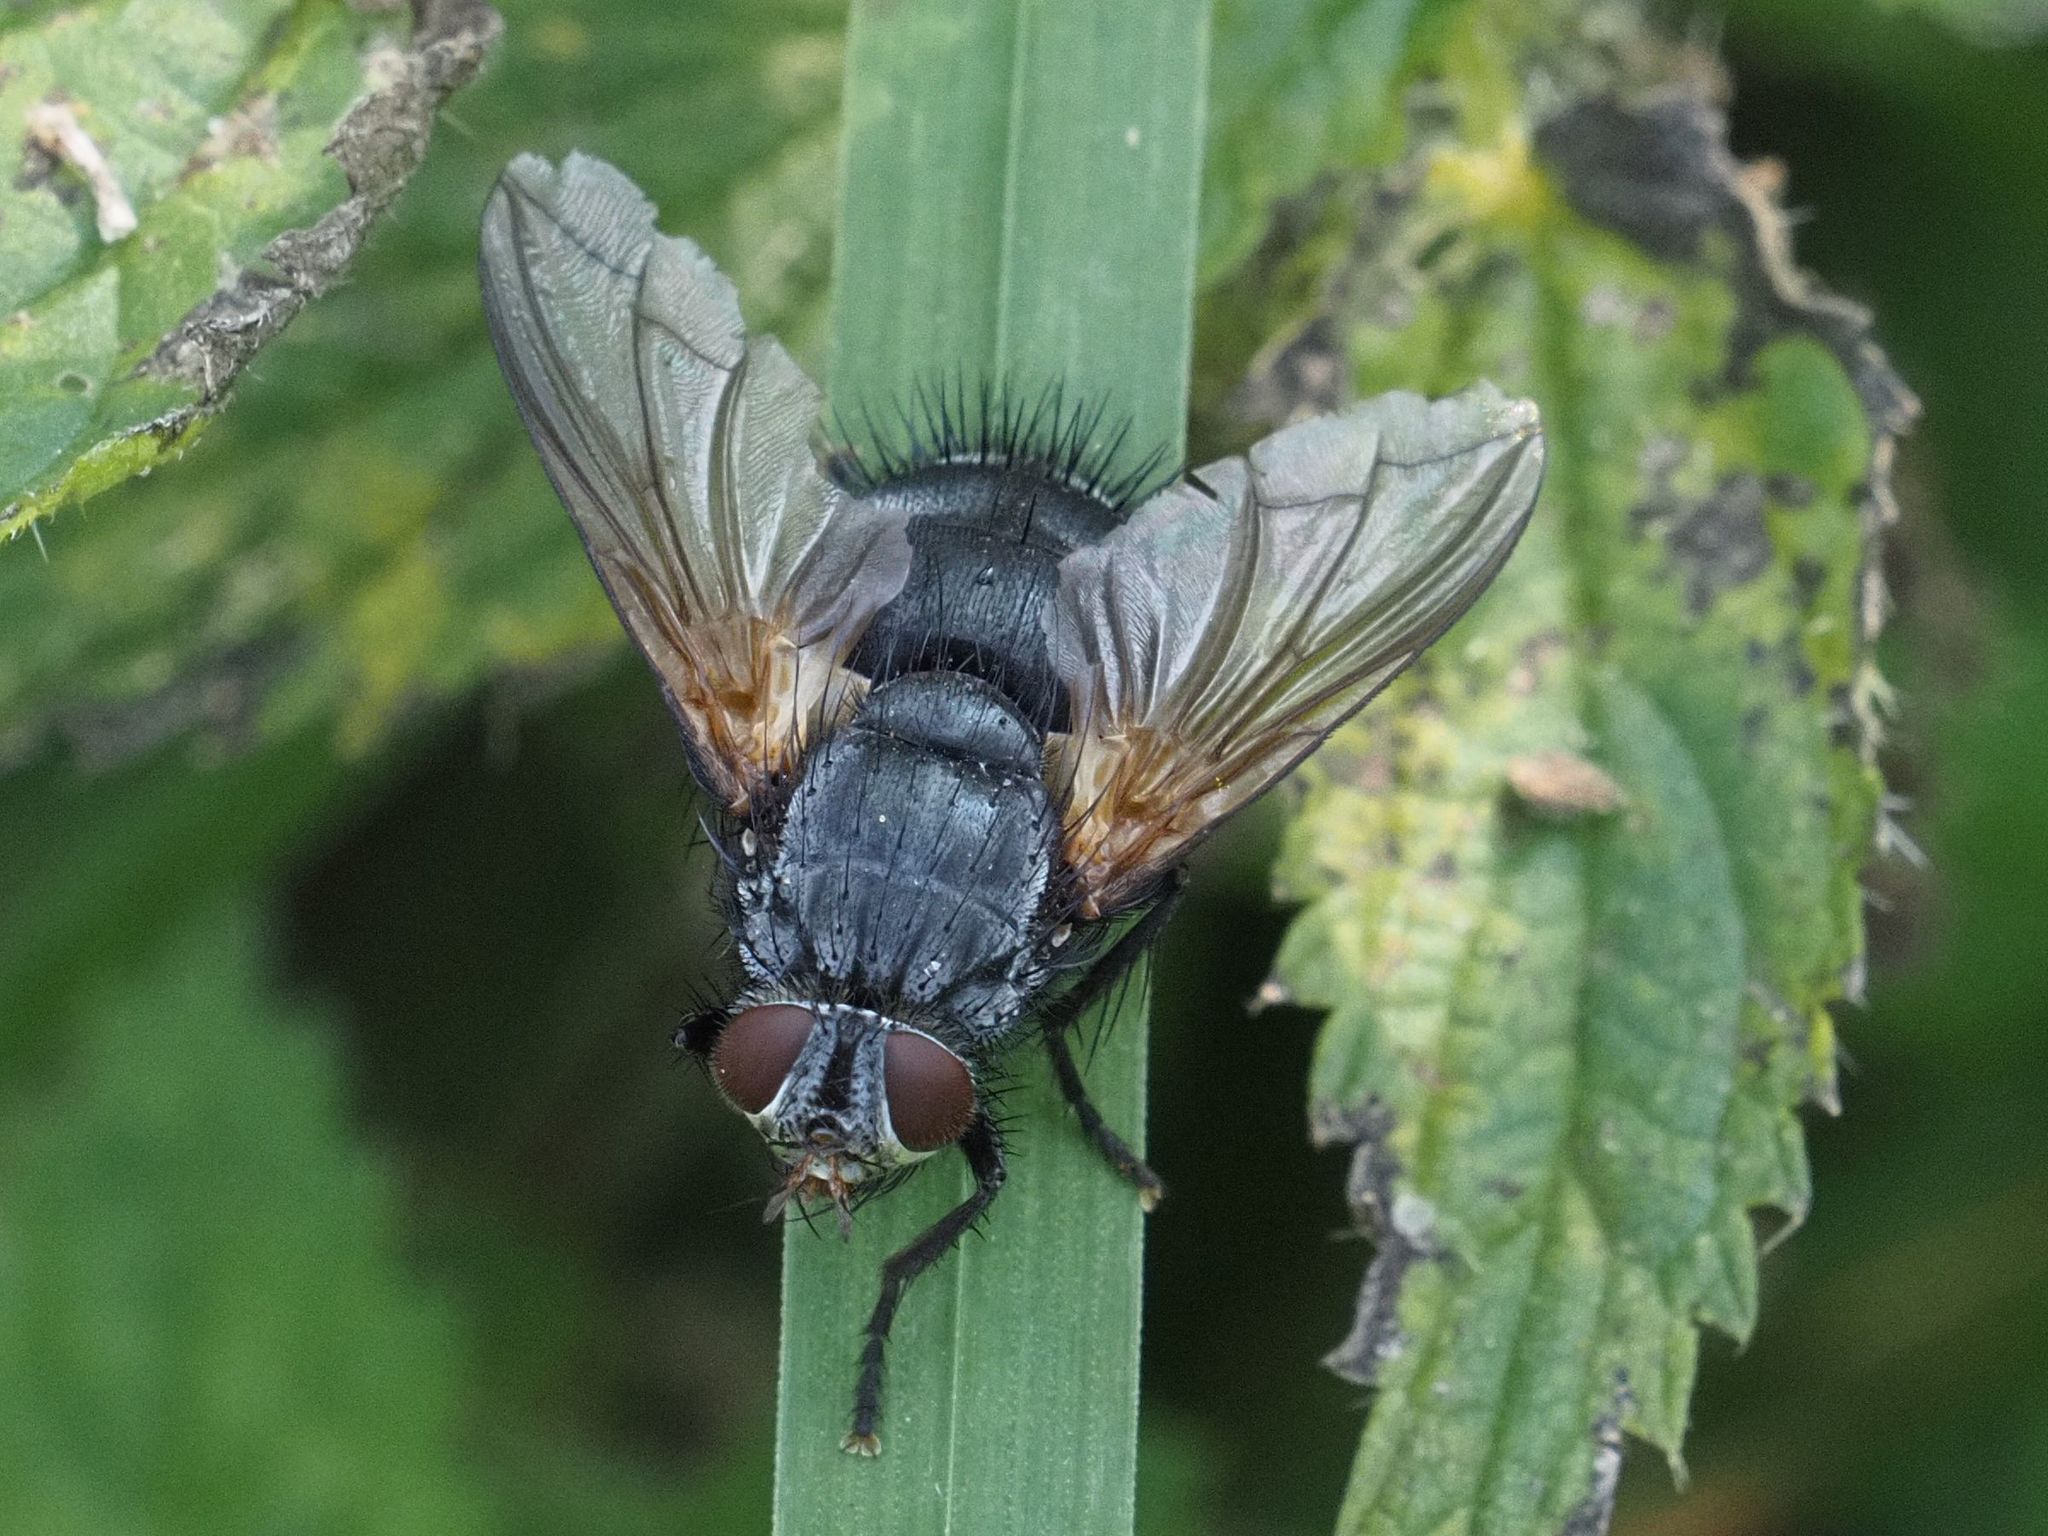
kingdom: Animalia
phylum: Arthropoda
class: Insecta
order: Diptera
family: Tachinidae
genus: Nemoraea
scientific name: Nemoraea pellucida
